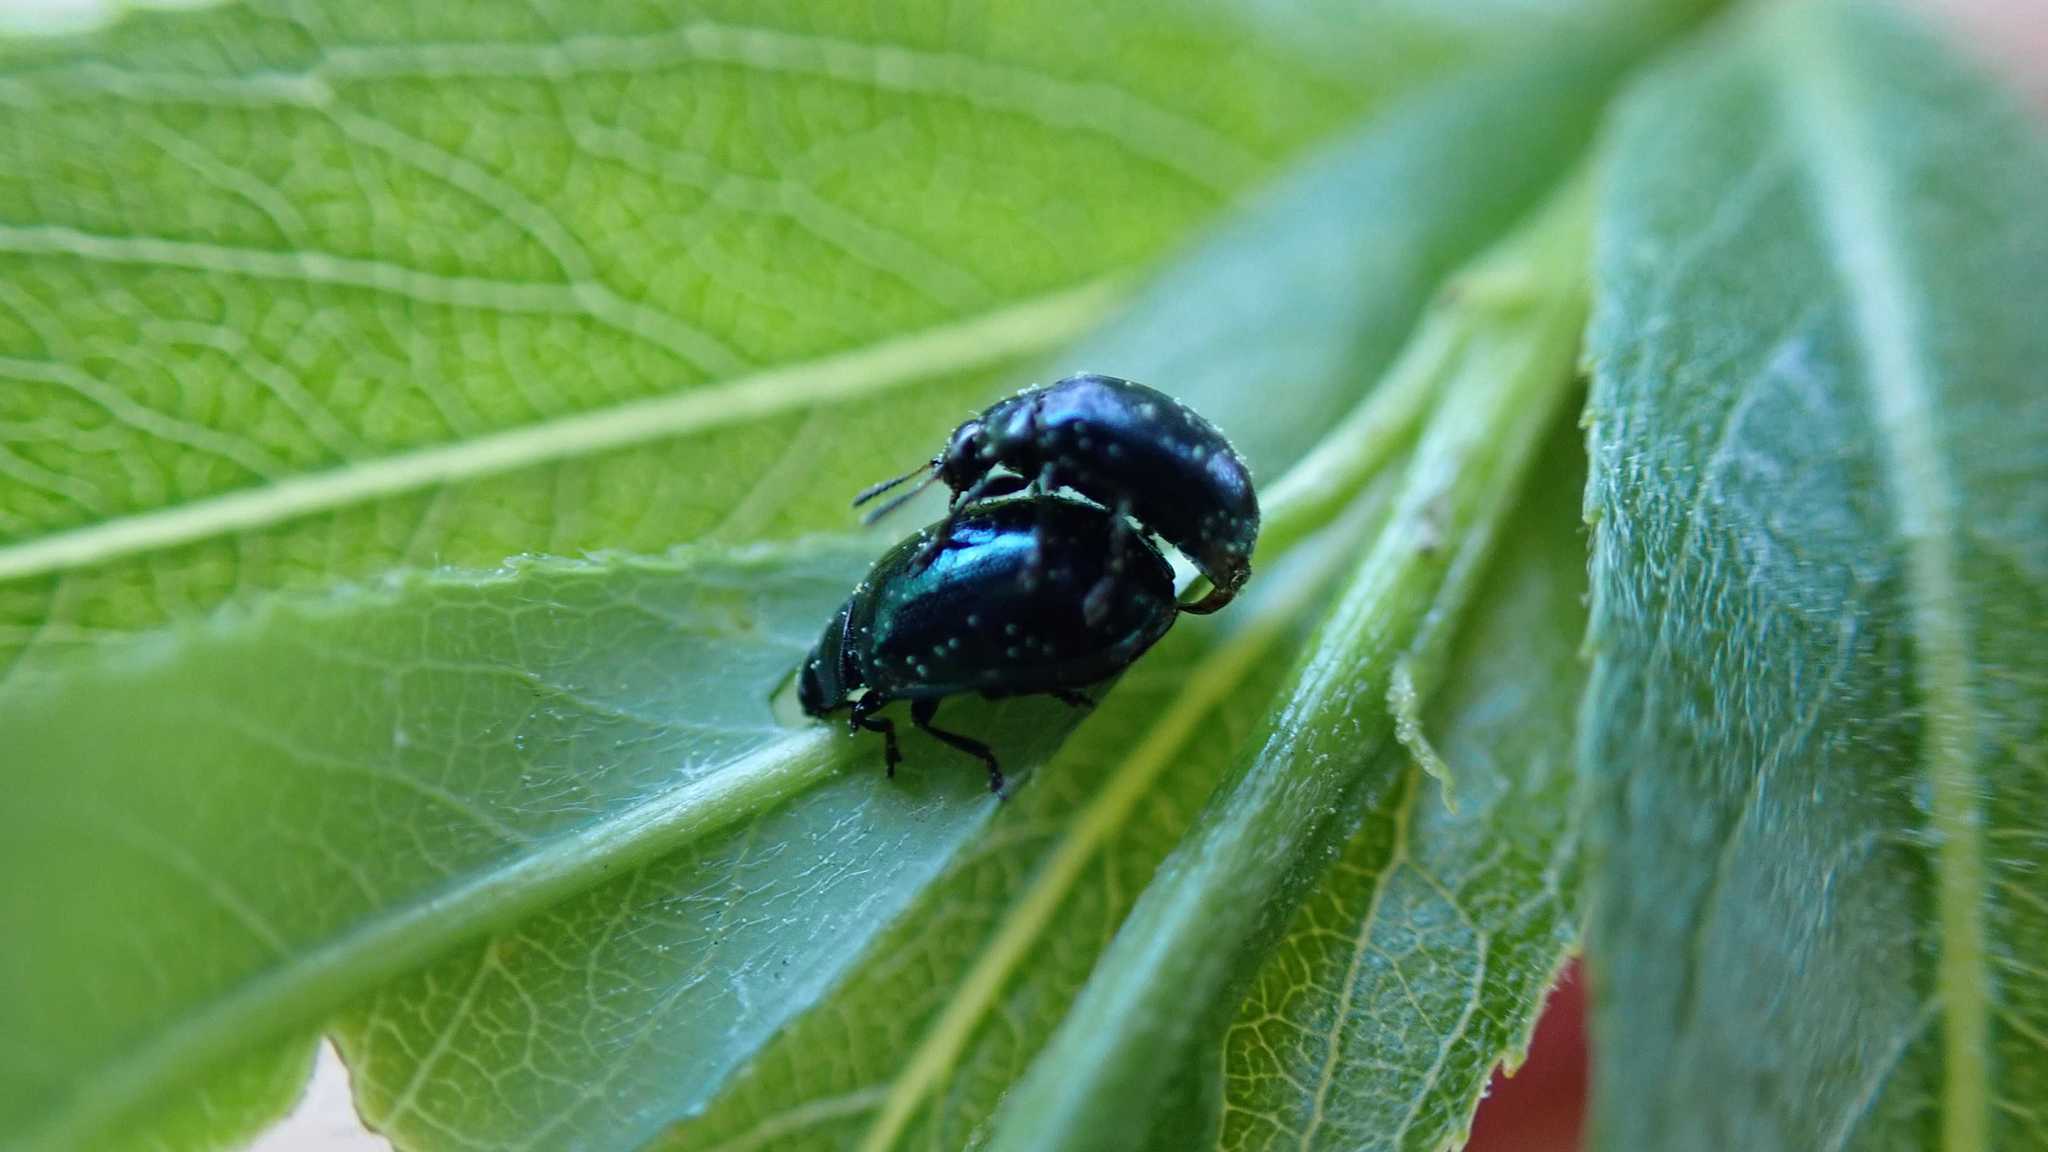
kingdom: Animalia
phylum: Arthropoda
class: Insecta
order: Coleoptera
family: Chrysomelidae
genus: Plagiodera
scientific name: Plagiodera versicolora
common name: Imported willow leaf beetle
